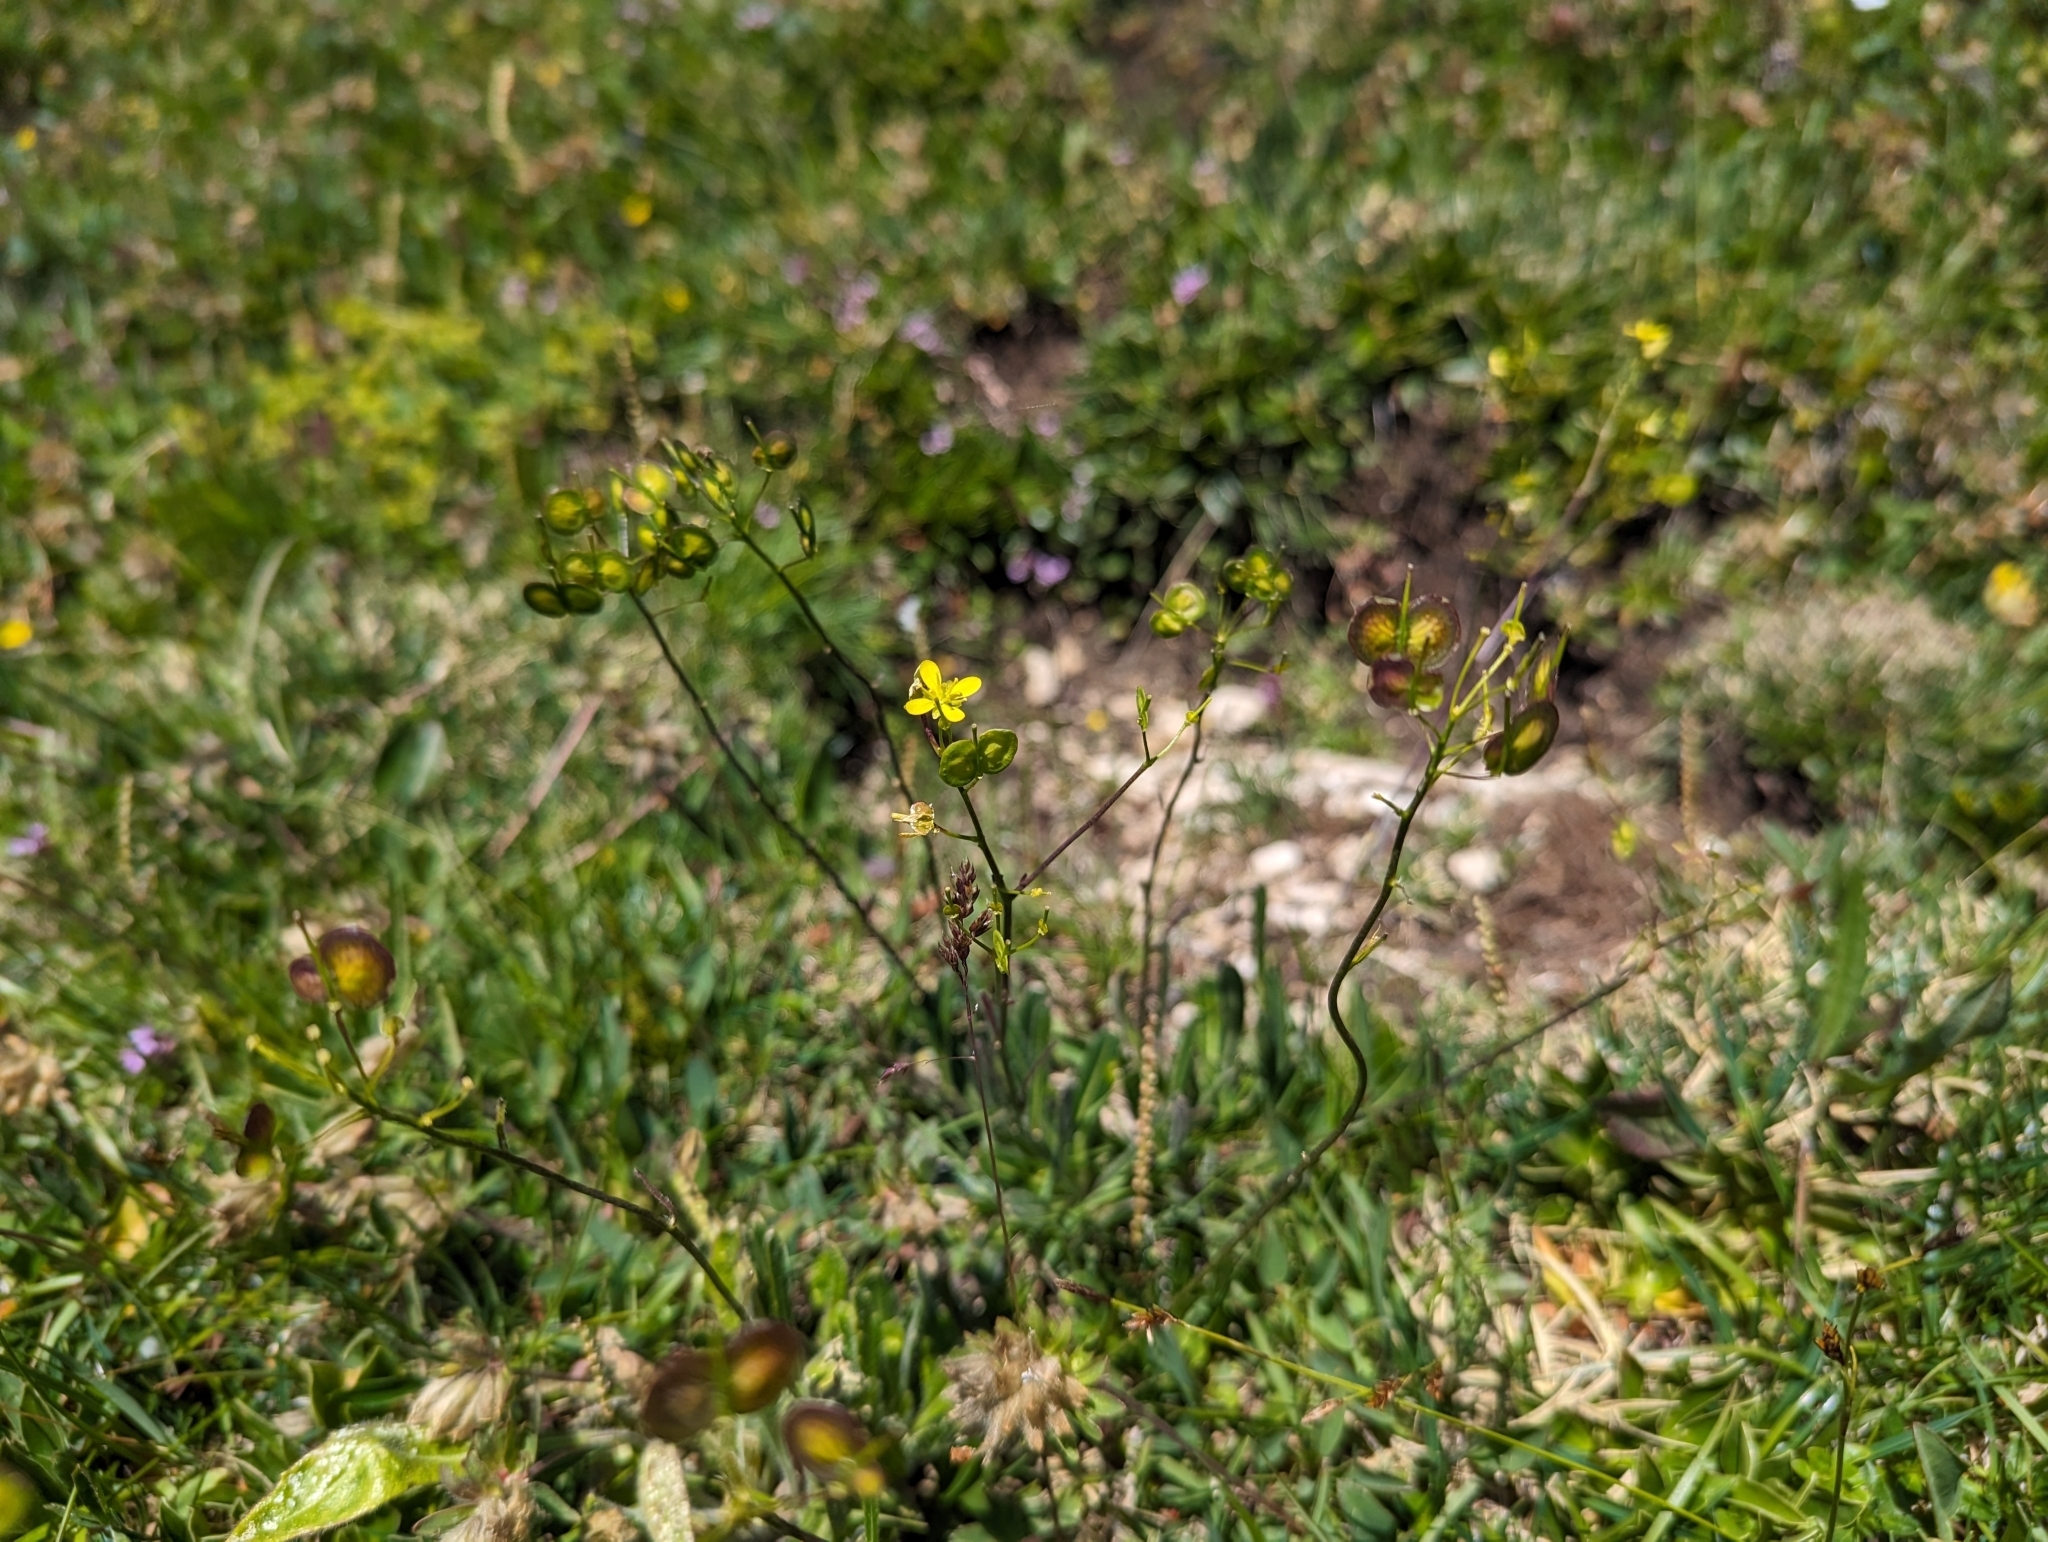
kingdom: Plantae
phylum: Tracheophyta
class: Magnoliopsida
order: Brassicales
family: Brassicaceae
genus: Biscutella
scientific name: Biscutella laevigata
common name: Buckler mustard
